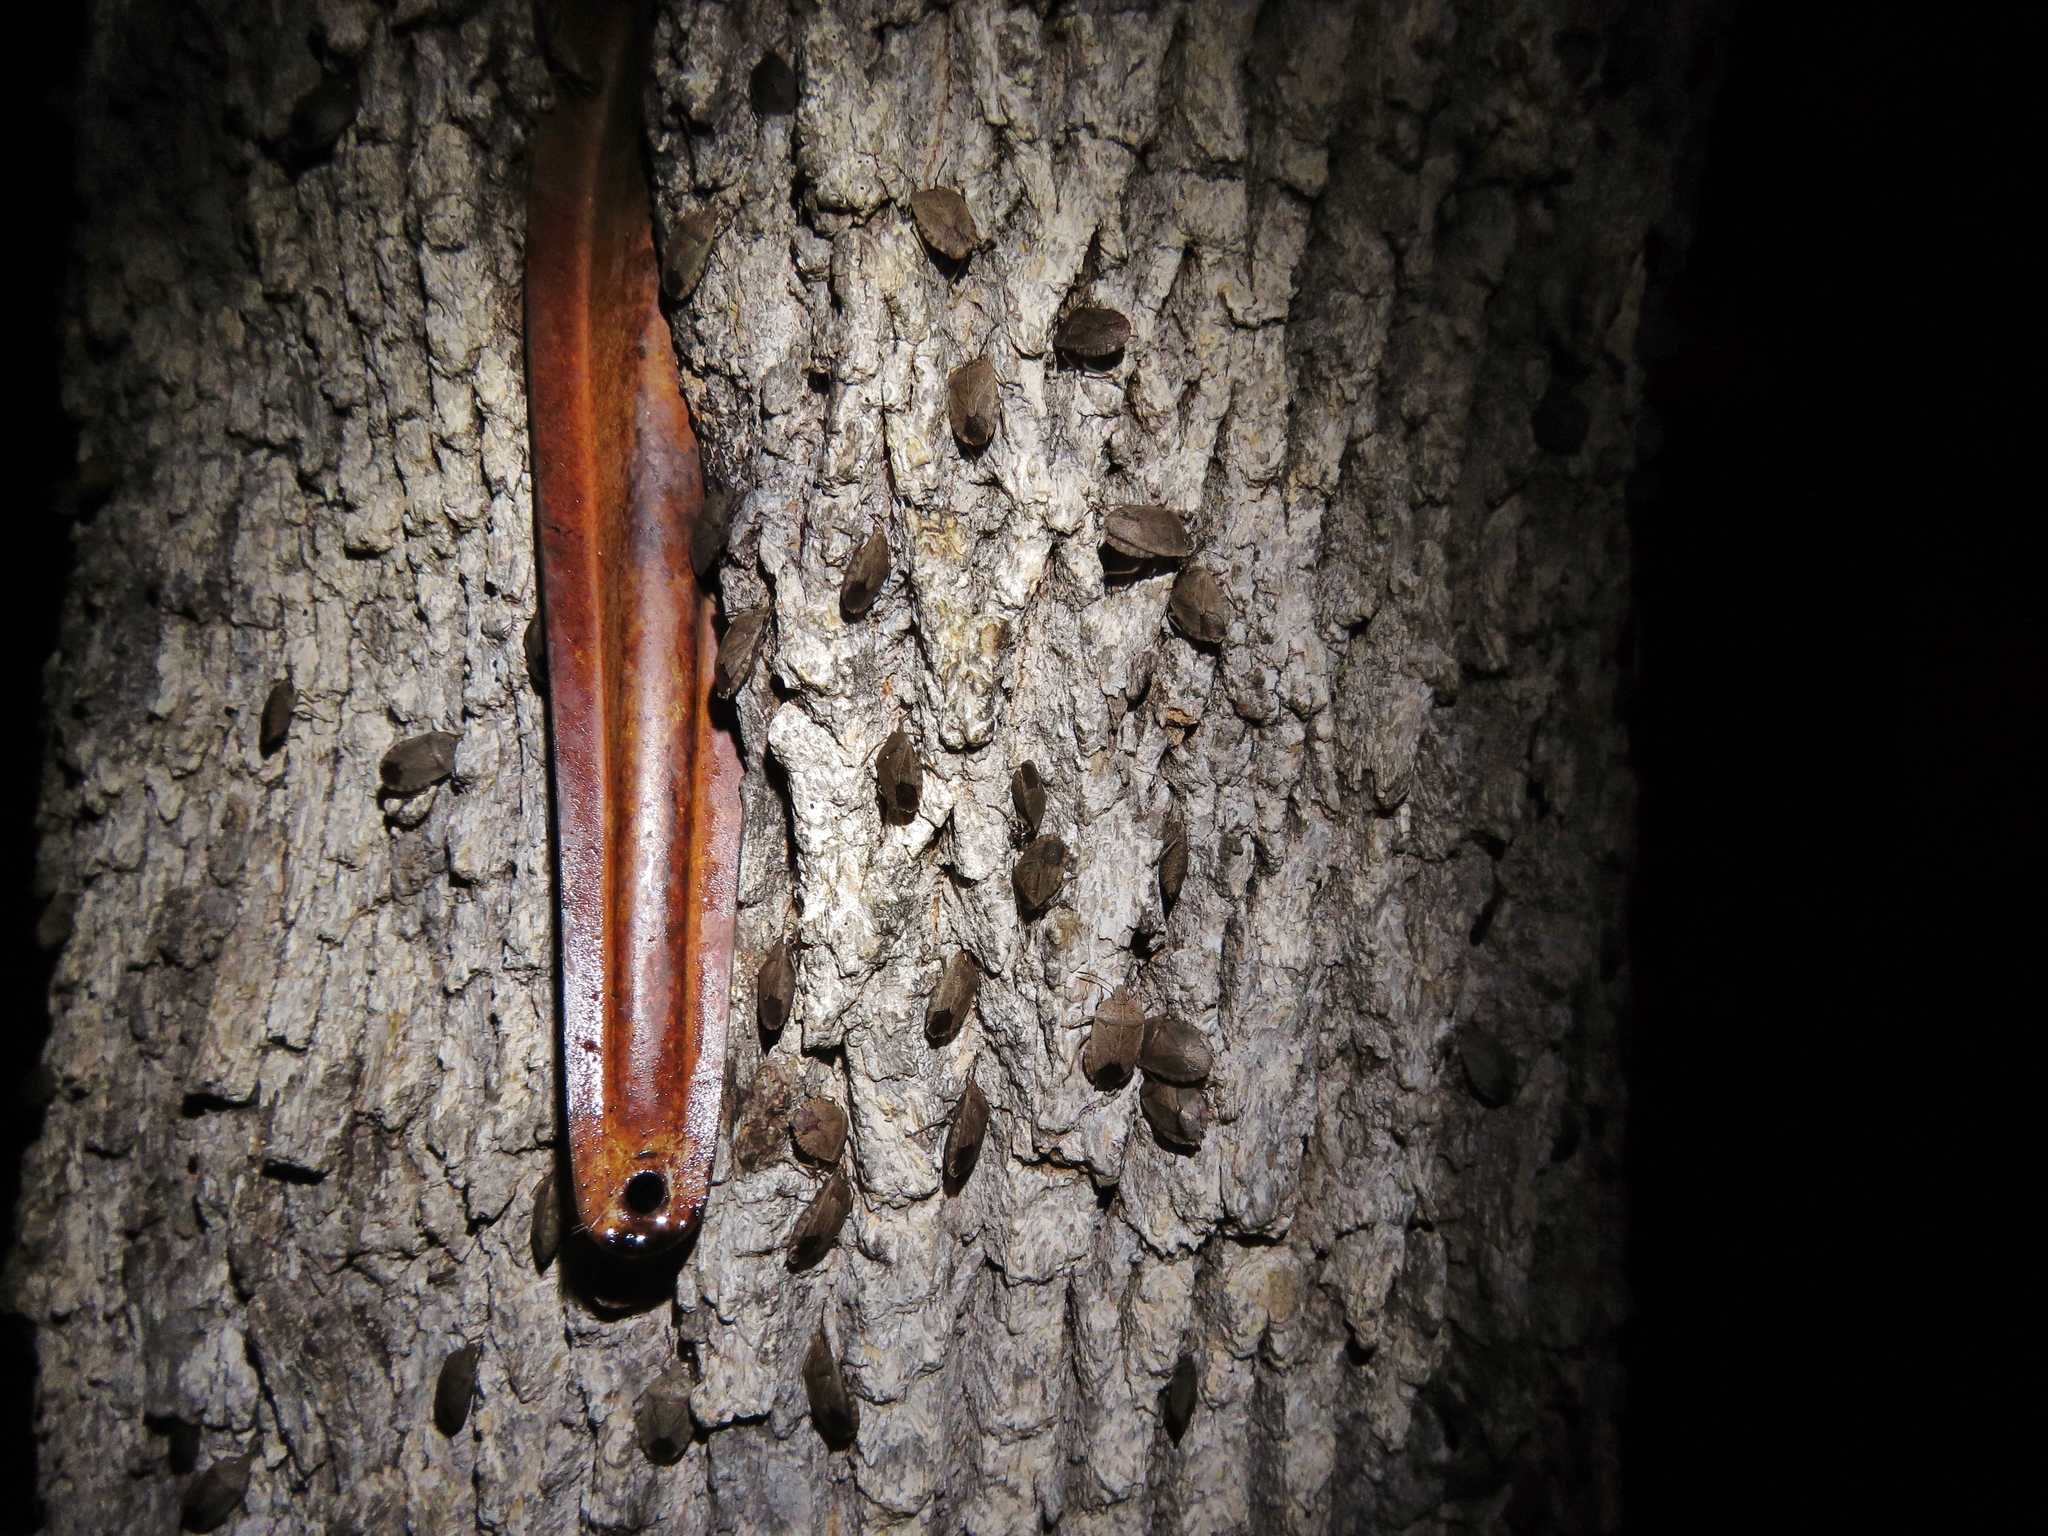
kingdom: Animalia
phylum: Arthropoda
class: Insecta
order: Hemiptera
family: Pentatomidae
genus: Menecles
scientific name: Menecles insertus
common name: Elf shoe stink bug
